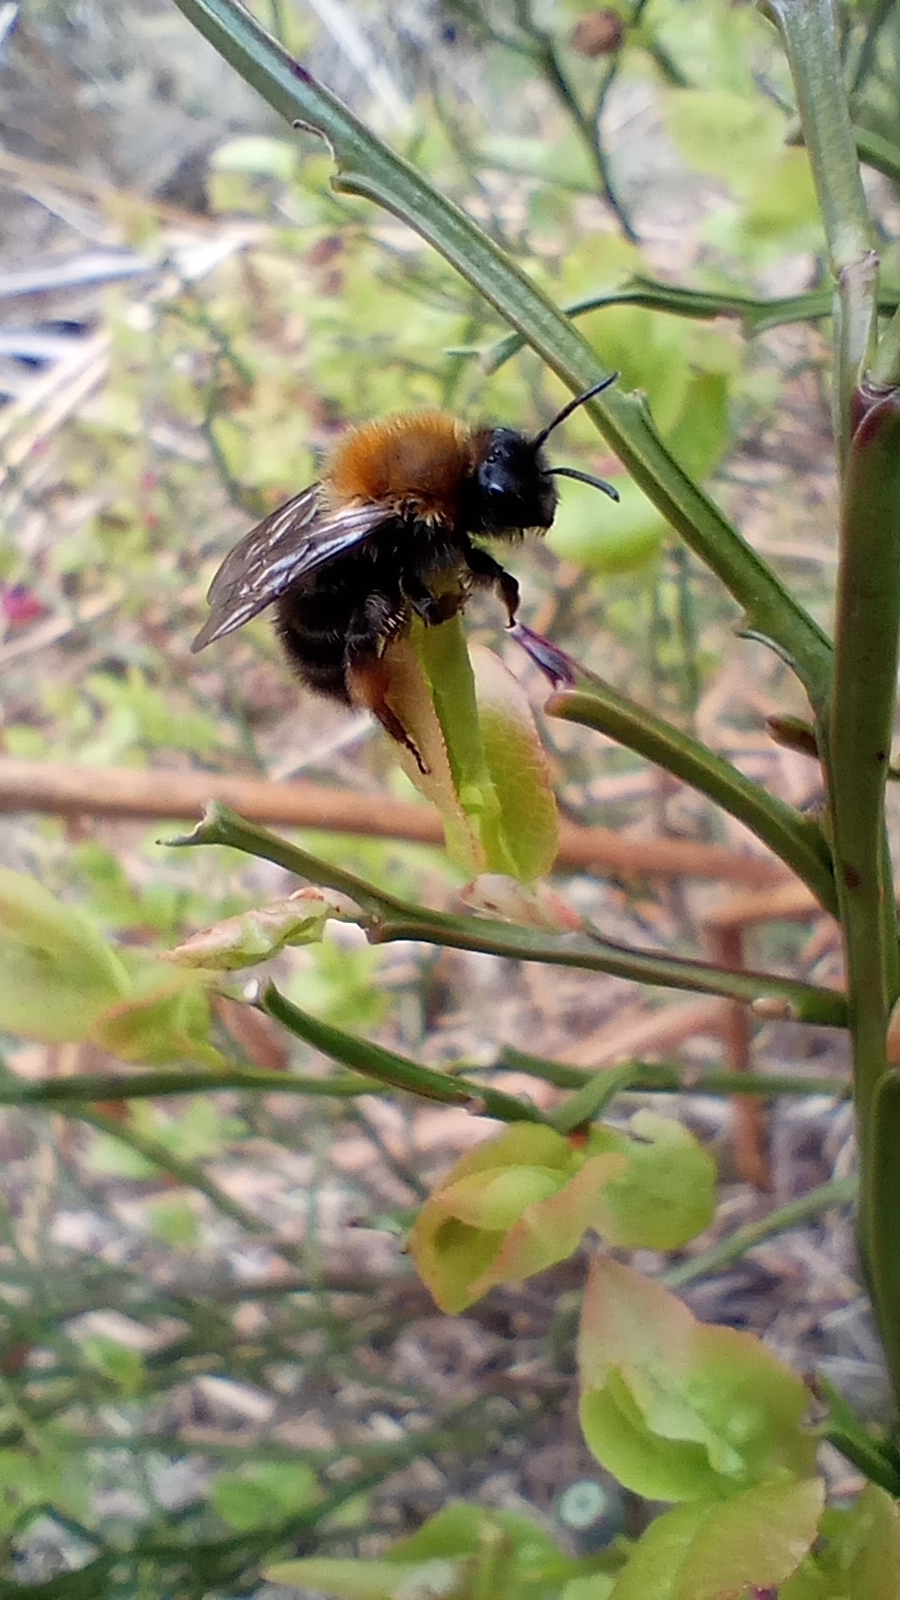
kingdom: Animalia
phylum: Arthropoda
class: Insecta
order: Hymenoptera
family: Andrenidae
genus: Andrena
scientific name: Andrena clarkella
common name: Clarke's mining bee
